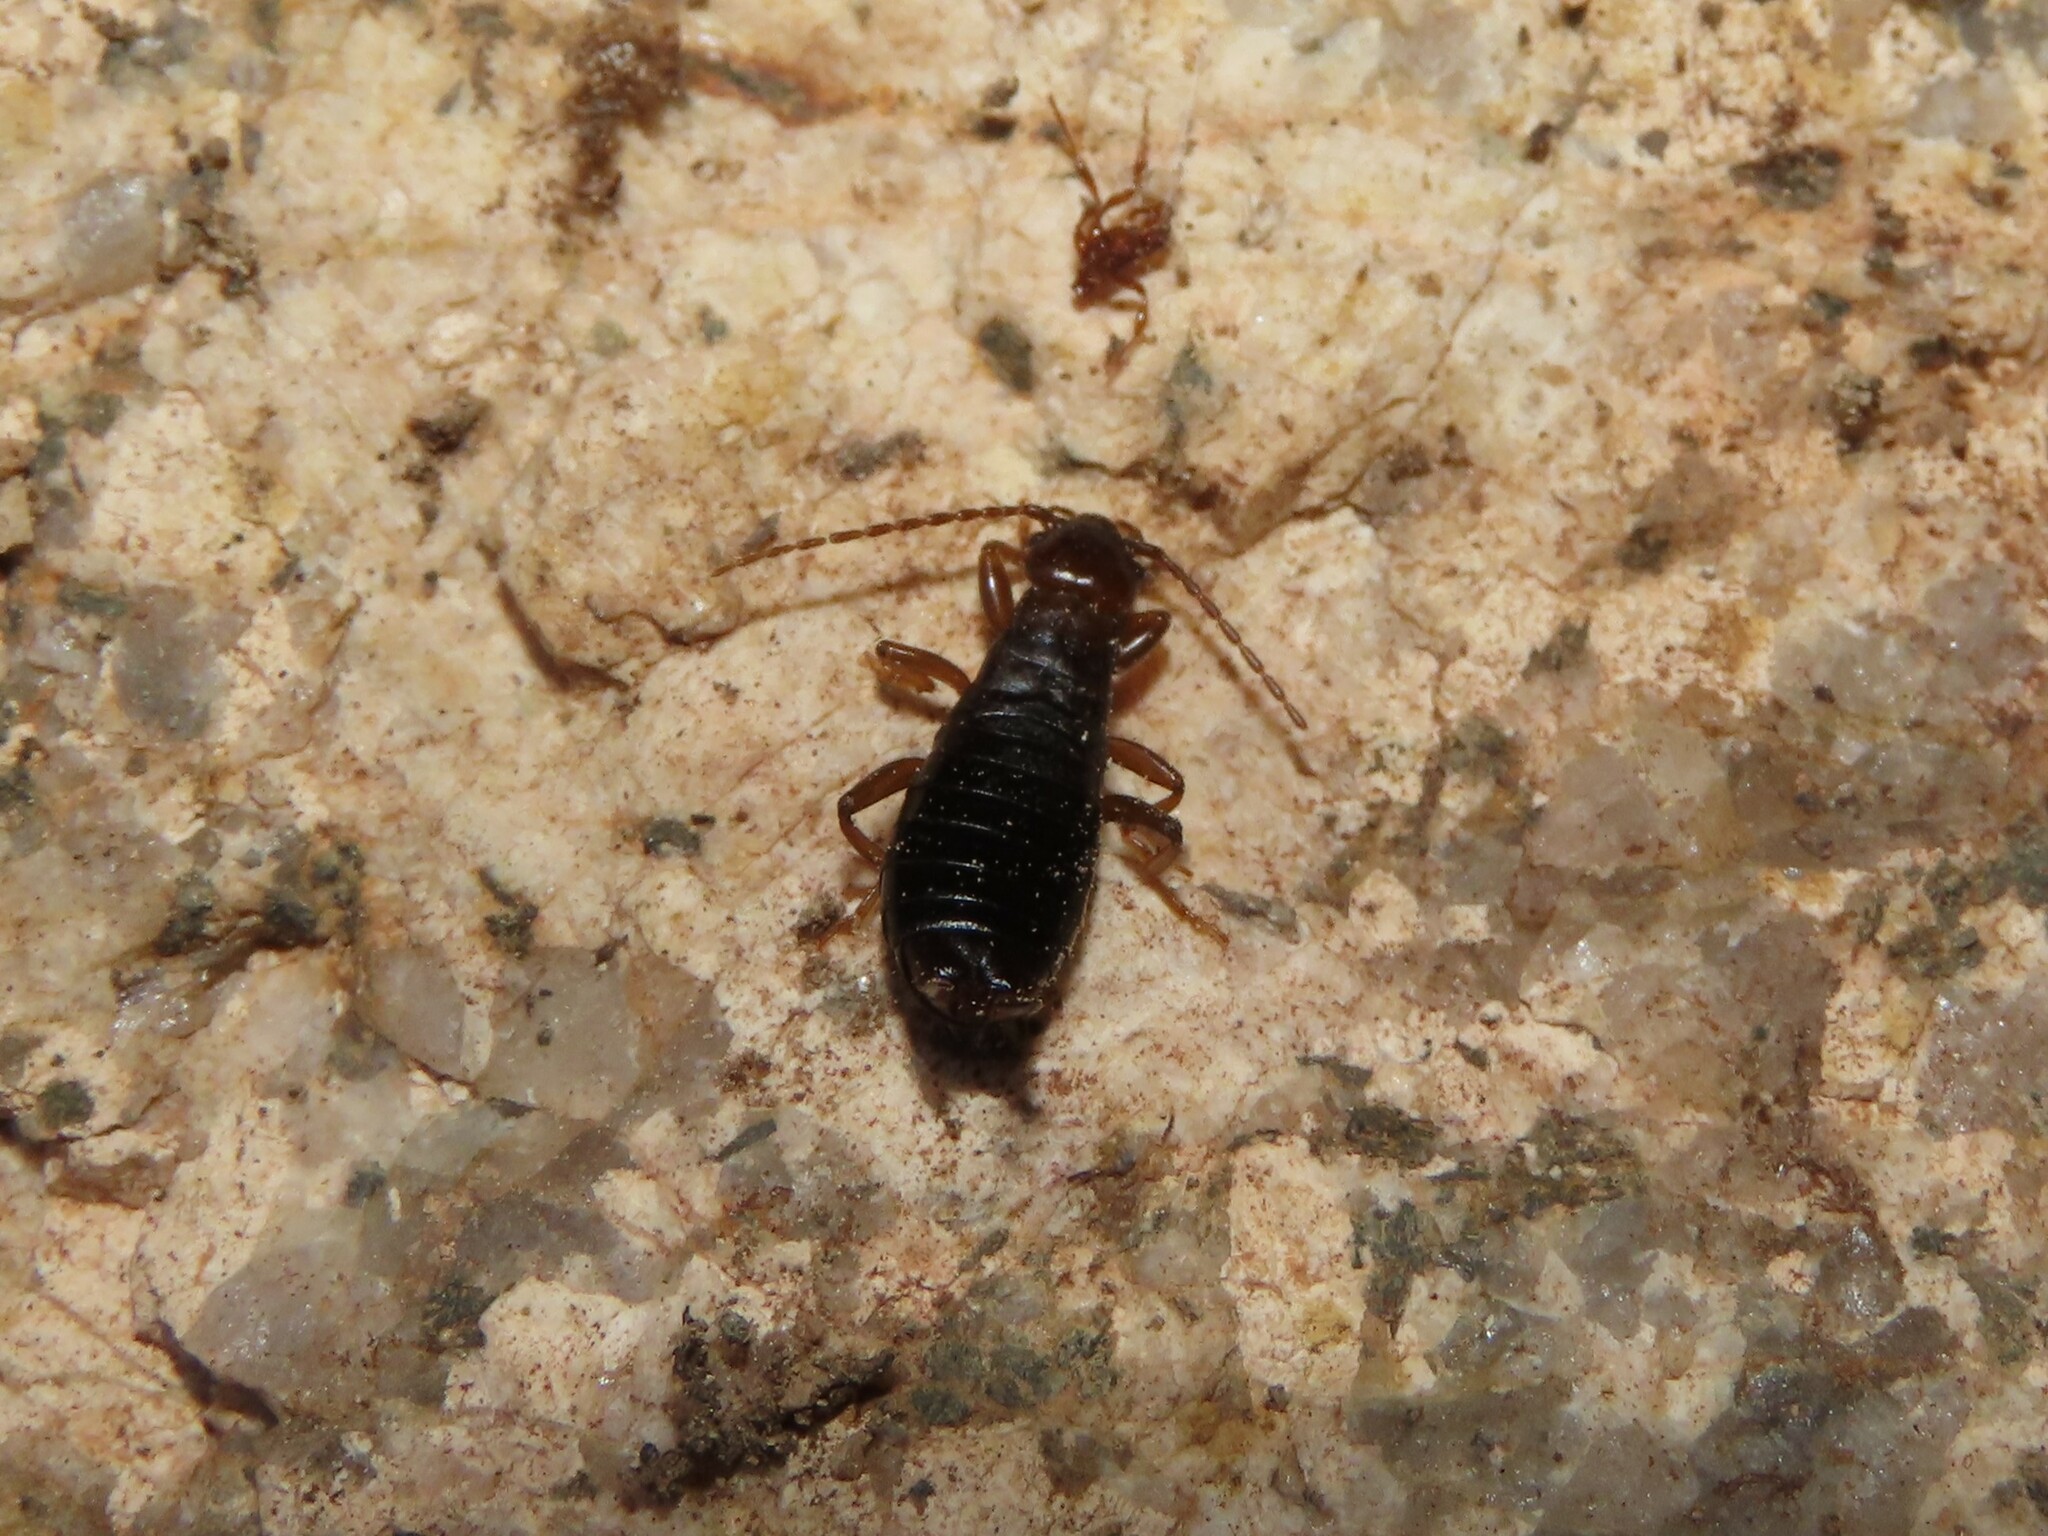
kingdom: Animalia
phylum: Arthropoda
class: Insecta
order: Dermaptera
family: Forficulidae
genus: Mesochelidura
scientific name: Mesochelidura bolivari
